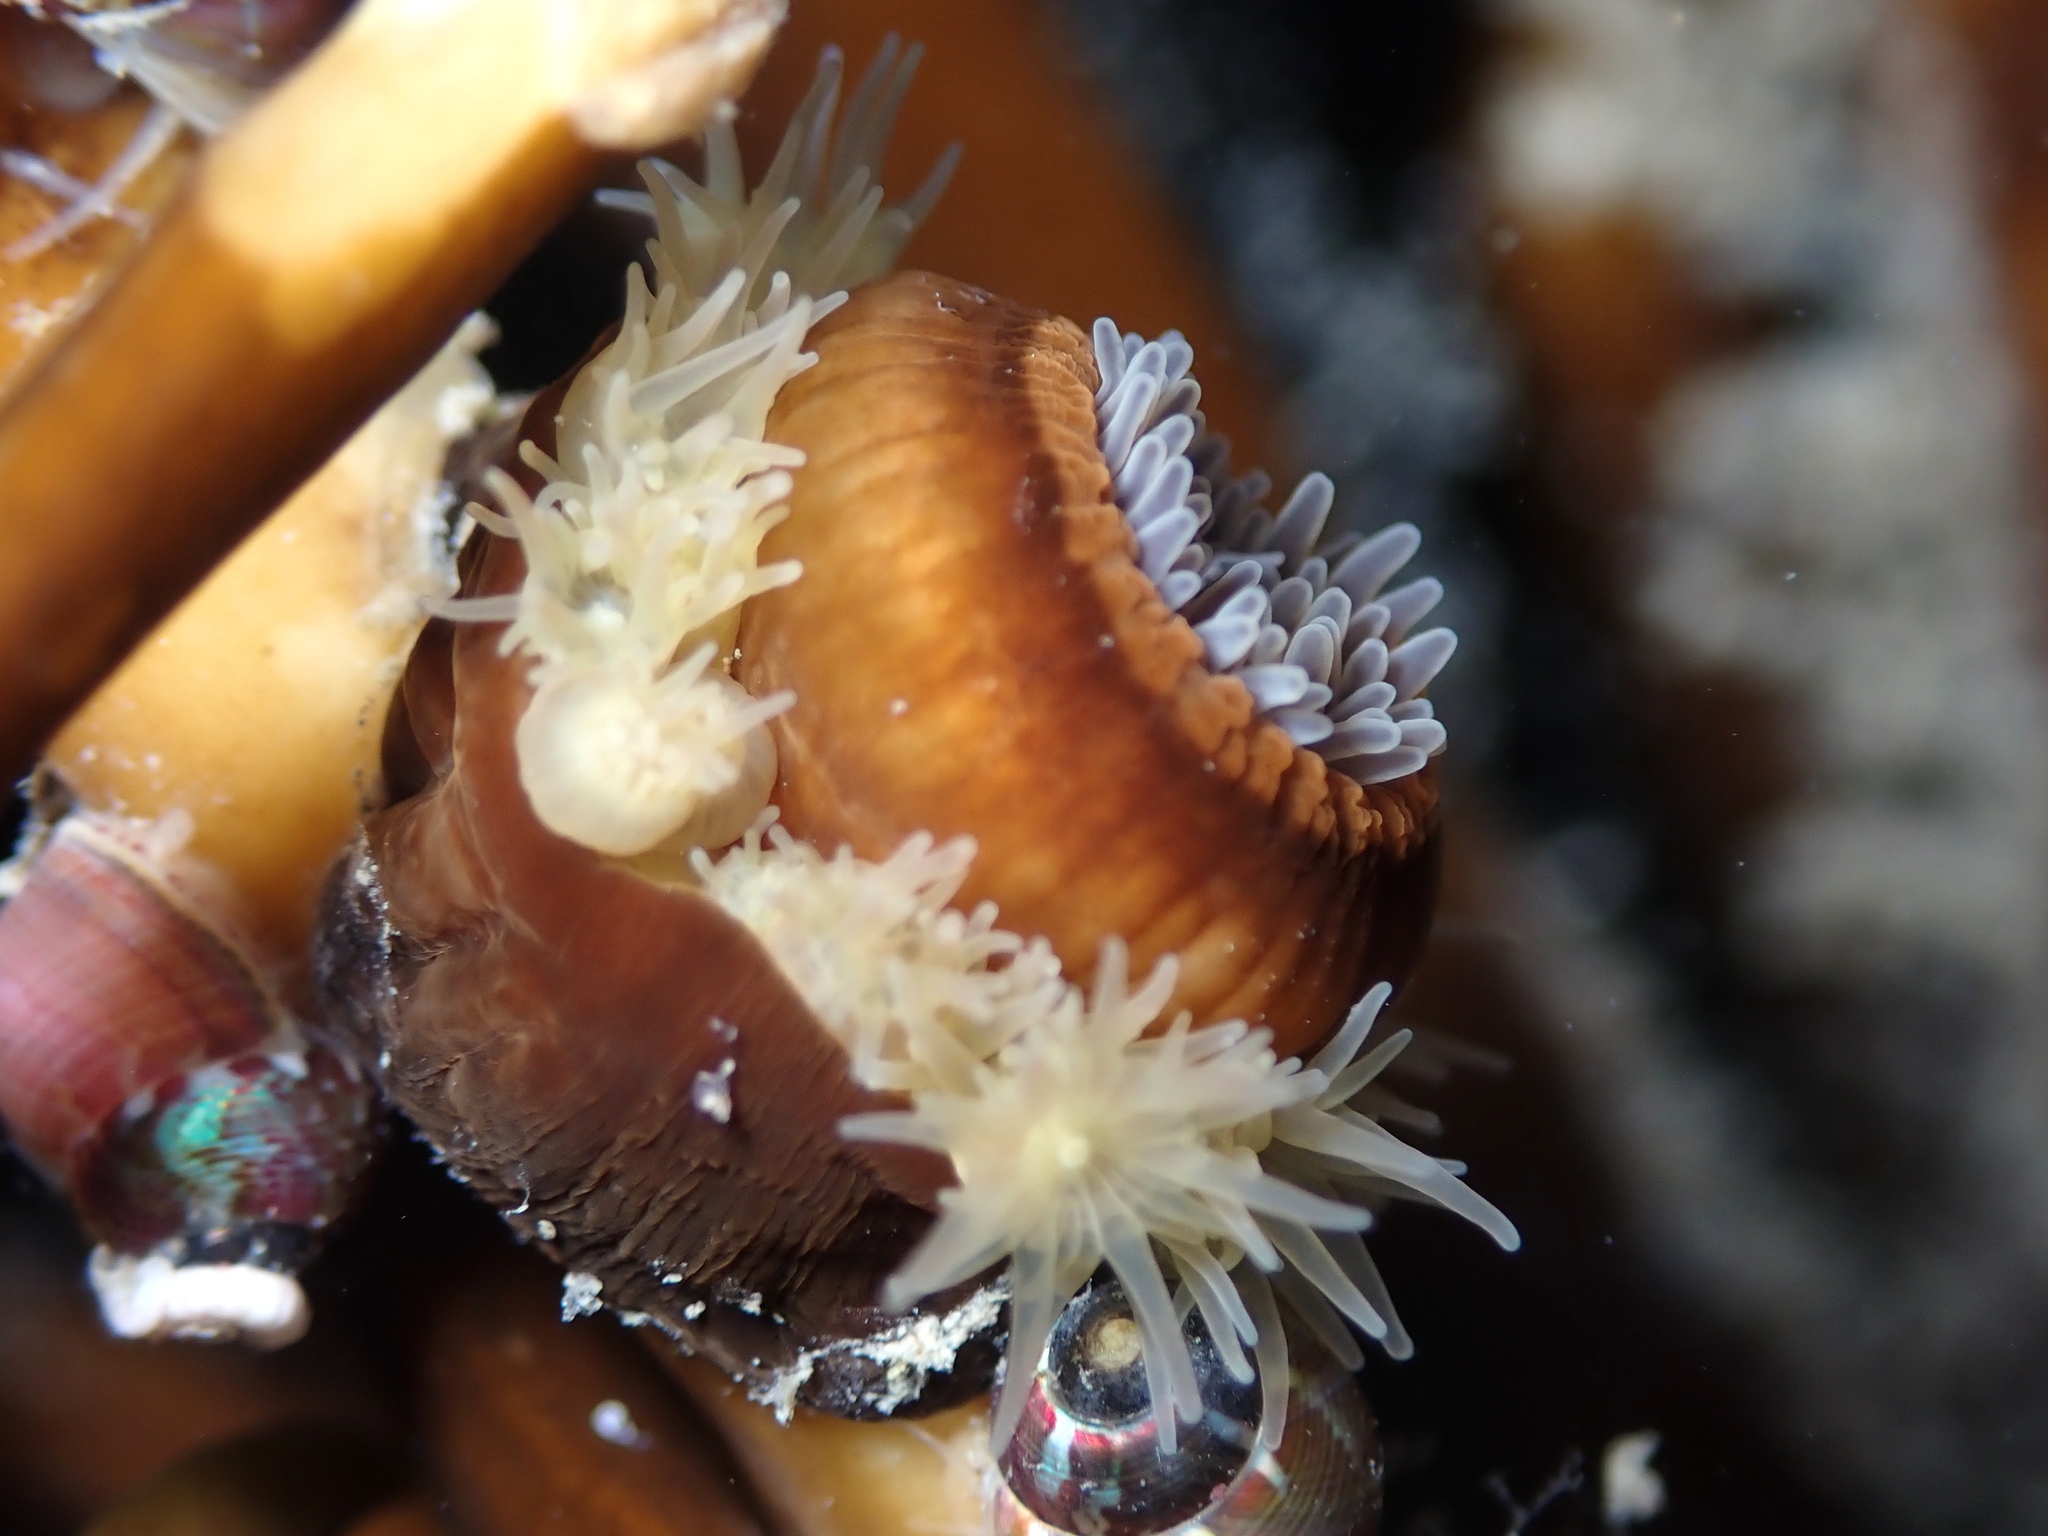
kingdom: Animalia
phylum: Cnidaria
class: Anthozoa
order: Actiniaria
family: Hormathiidae
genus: Handactis
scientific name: Handactis nutrix
